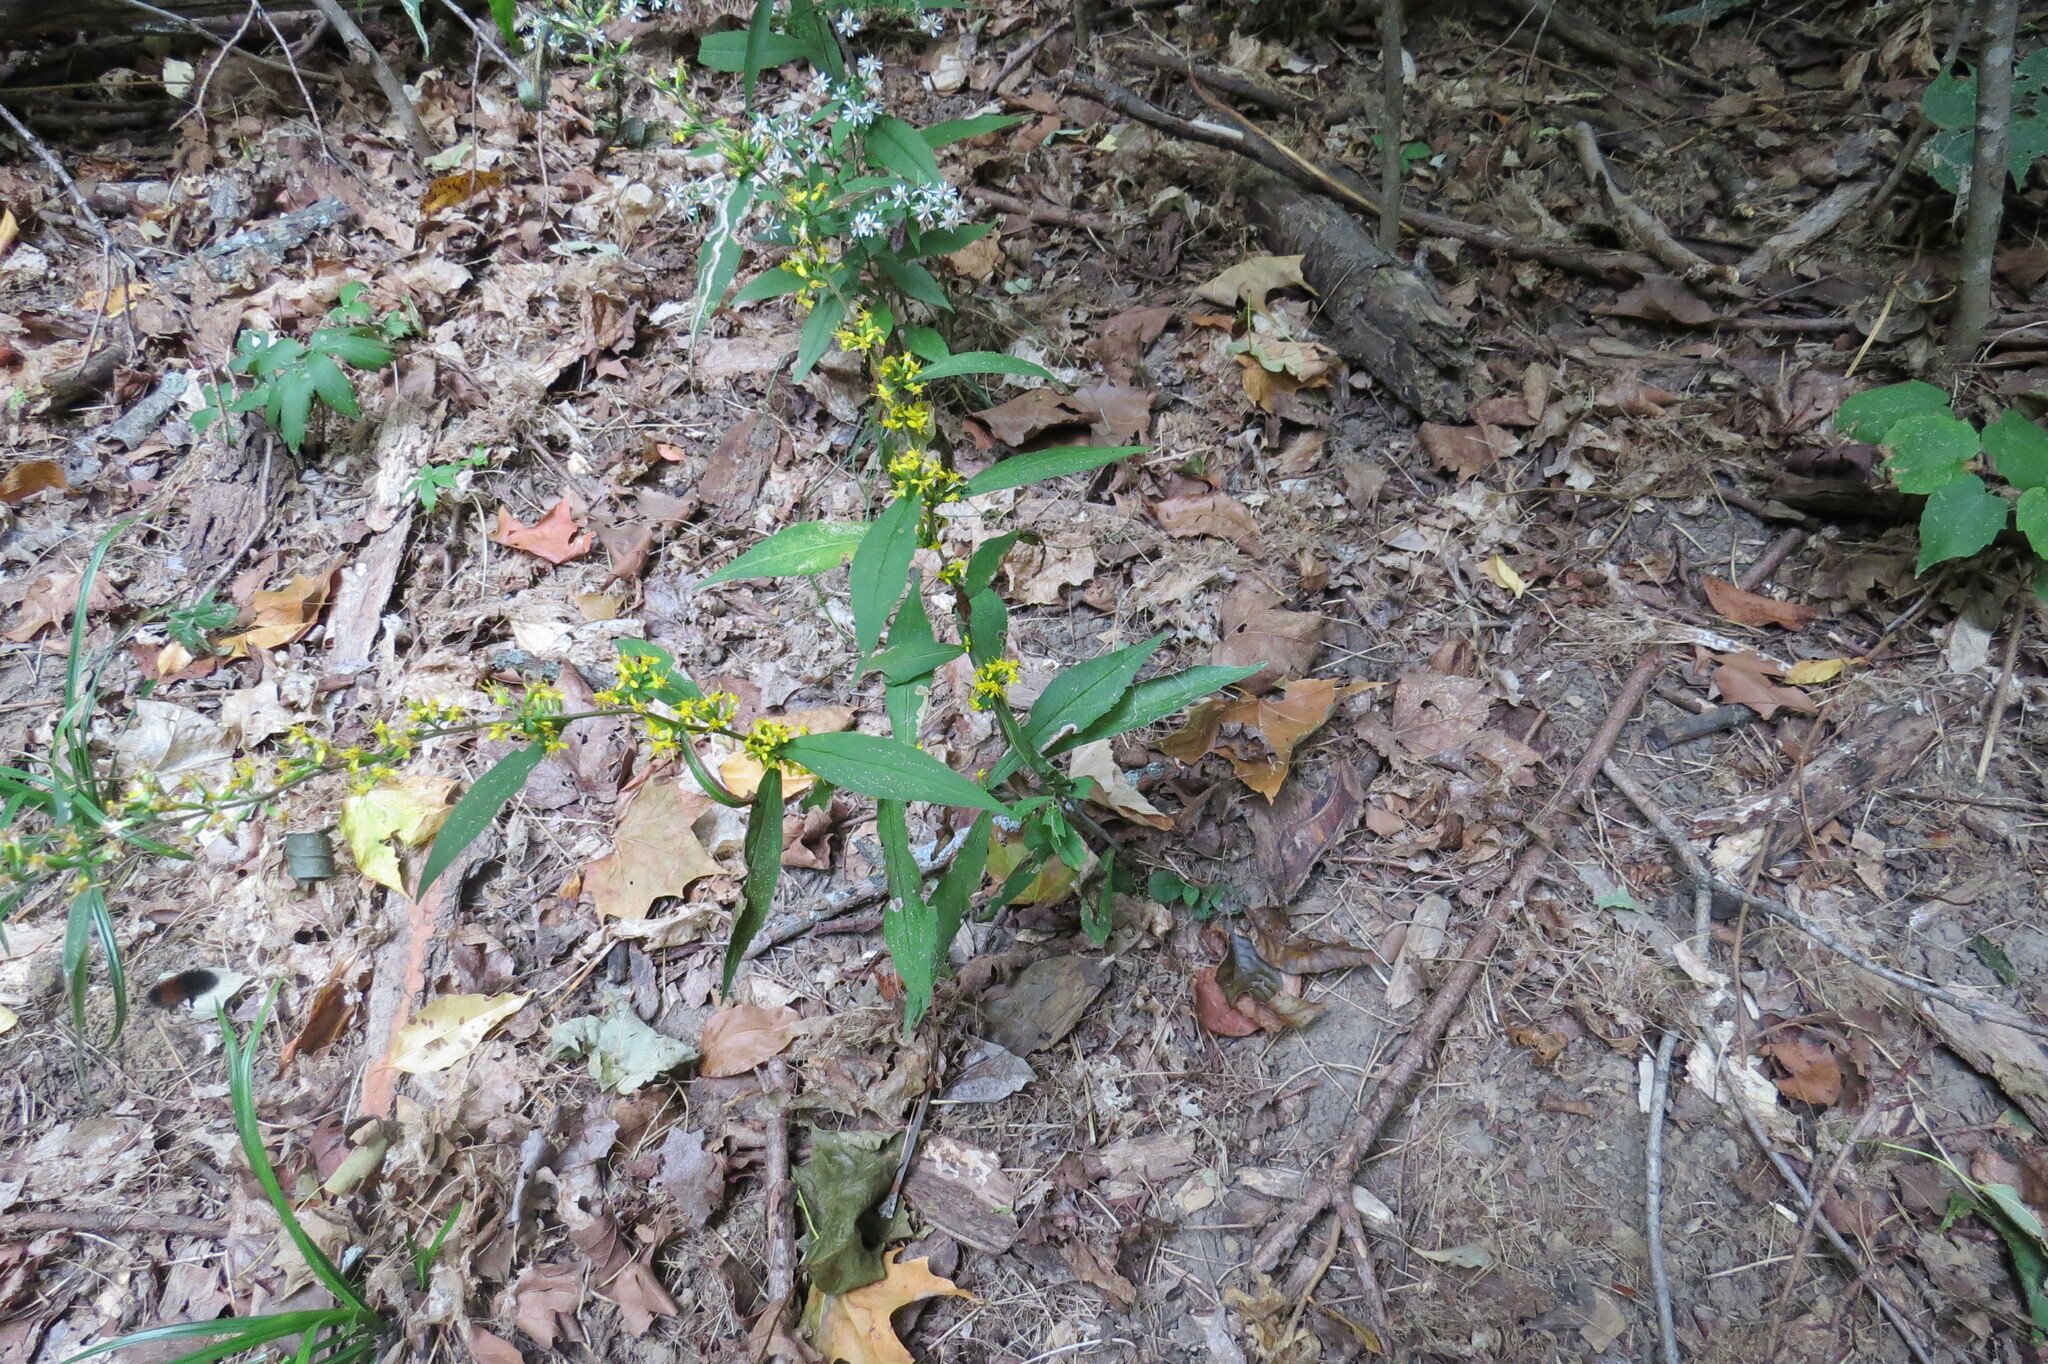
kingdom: Plantae
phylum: Tracheophyta
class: Magnoliopsida
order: Asterales
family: Asteraceae
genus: Solidago
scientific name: Solidago caesia
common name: Woodland goldenrod
